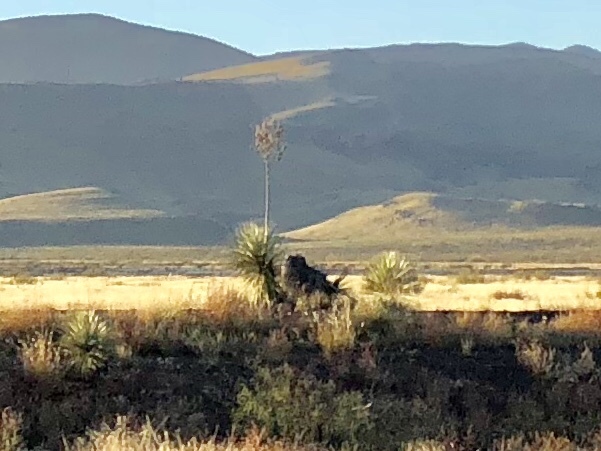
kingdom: Plantae
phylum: Tracheophyta
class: Liliopsida
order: Asparagales
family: Asparagaceae
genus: Yucca
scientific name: Yucca elata
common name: Palmella
